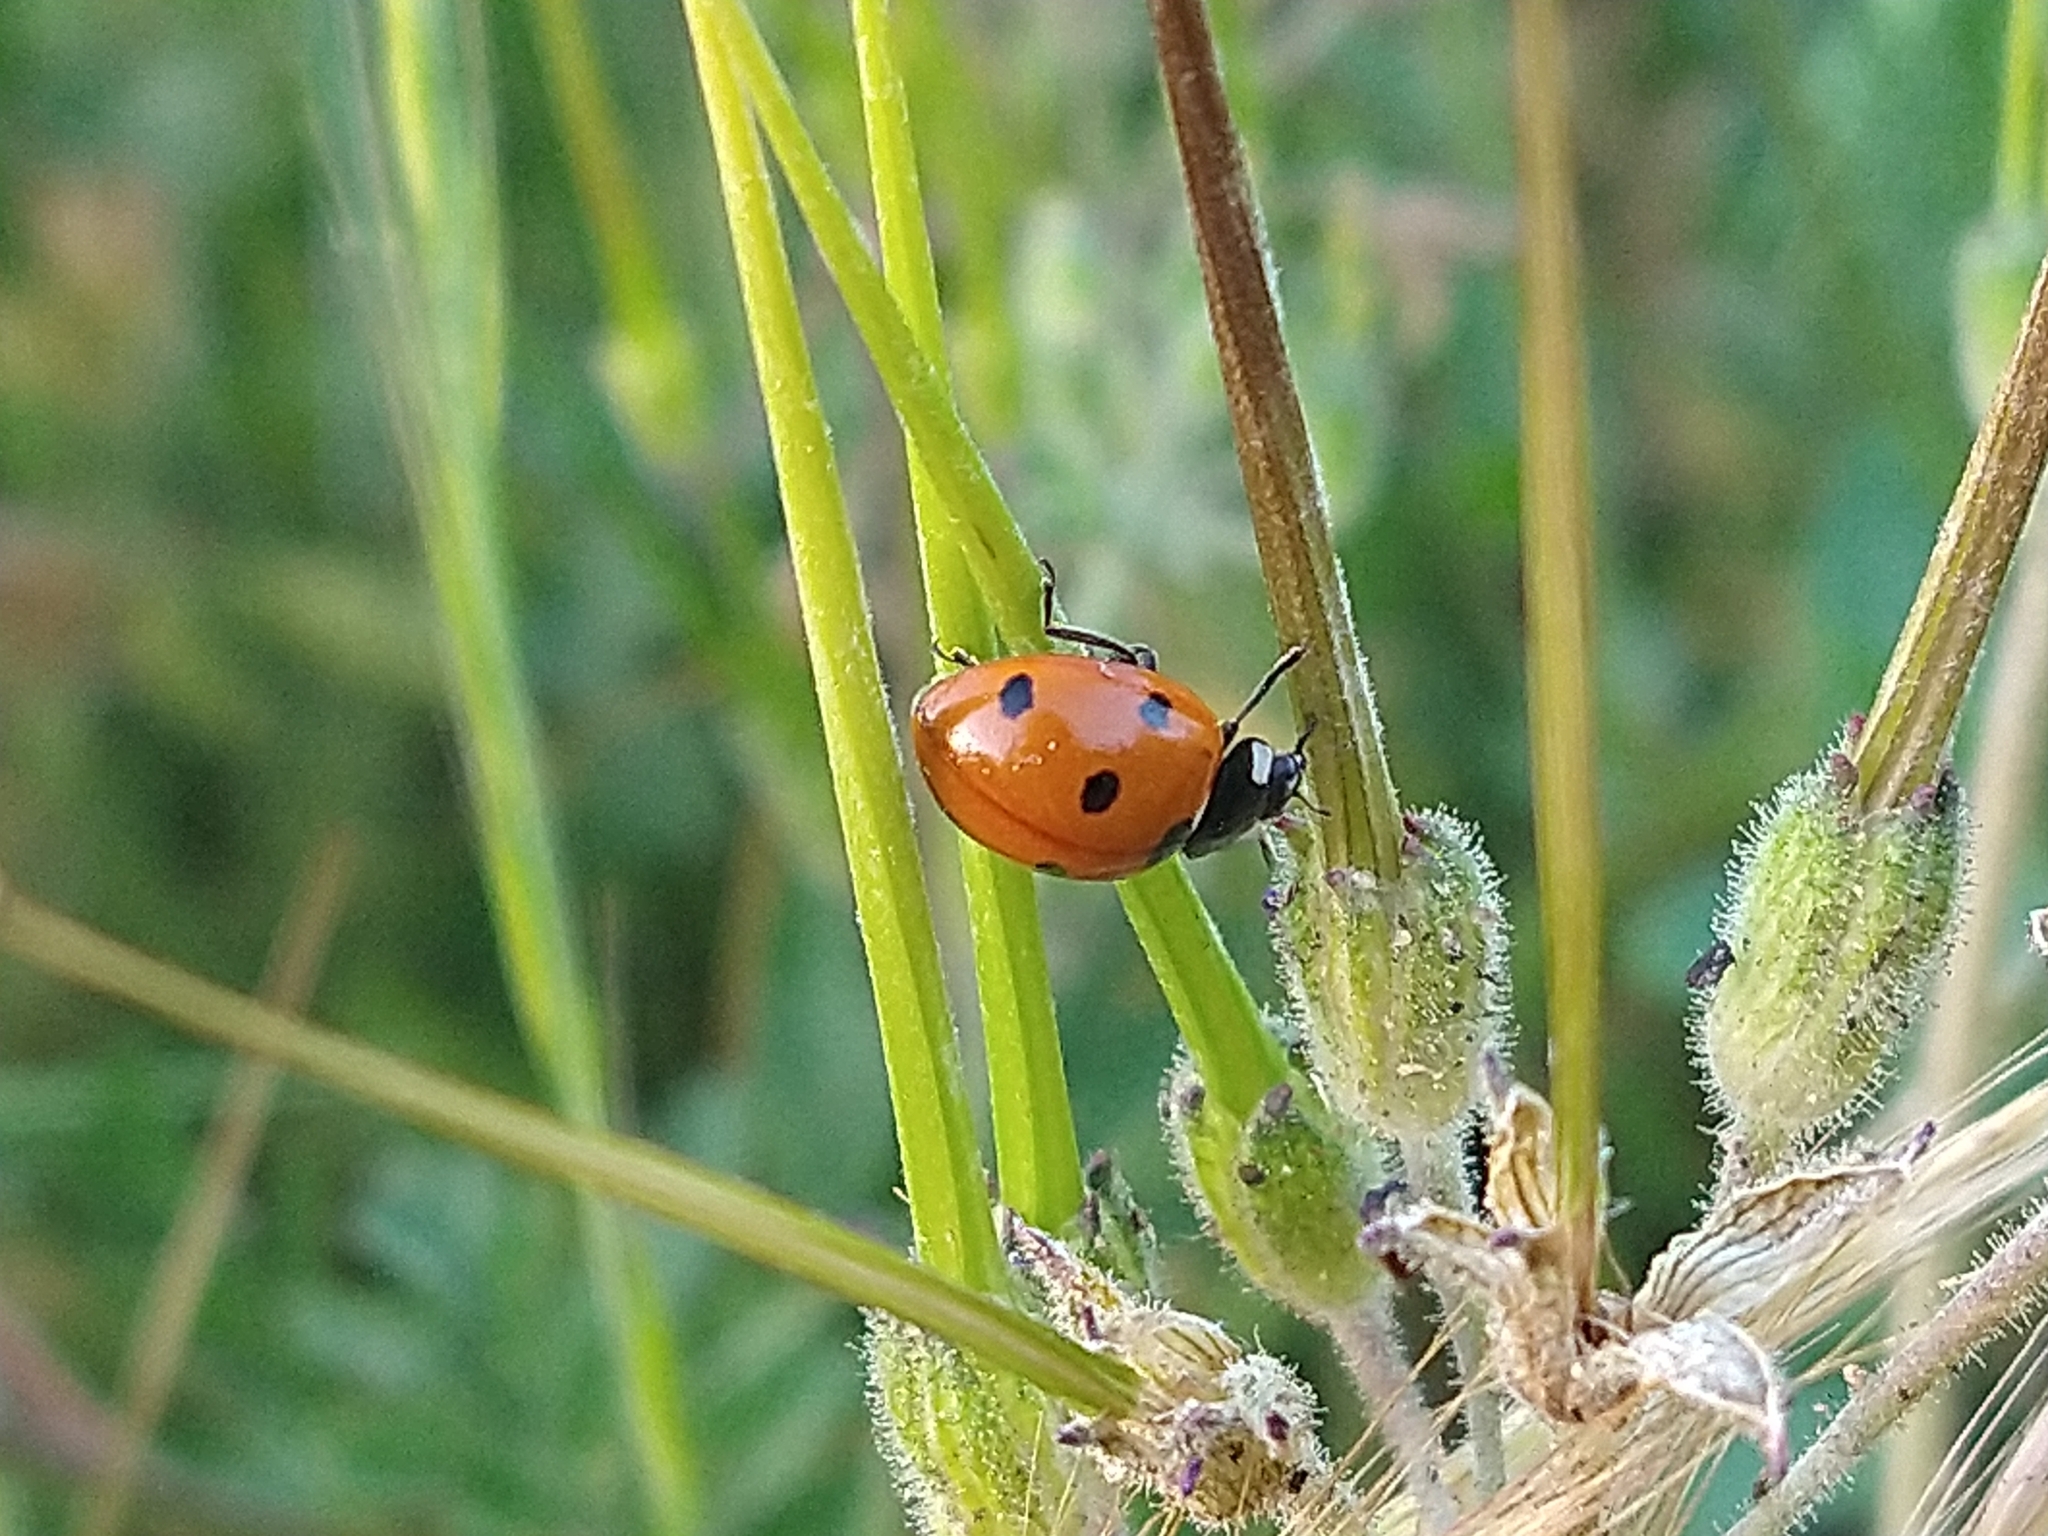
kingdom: Animalia
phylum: Arthropoda
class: Insecta
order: Coleoptera
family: Coccinellidae
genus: Coccinella
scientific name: Coccinella septempunctata
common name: Sevenspotted lady beetle
